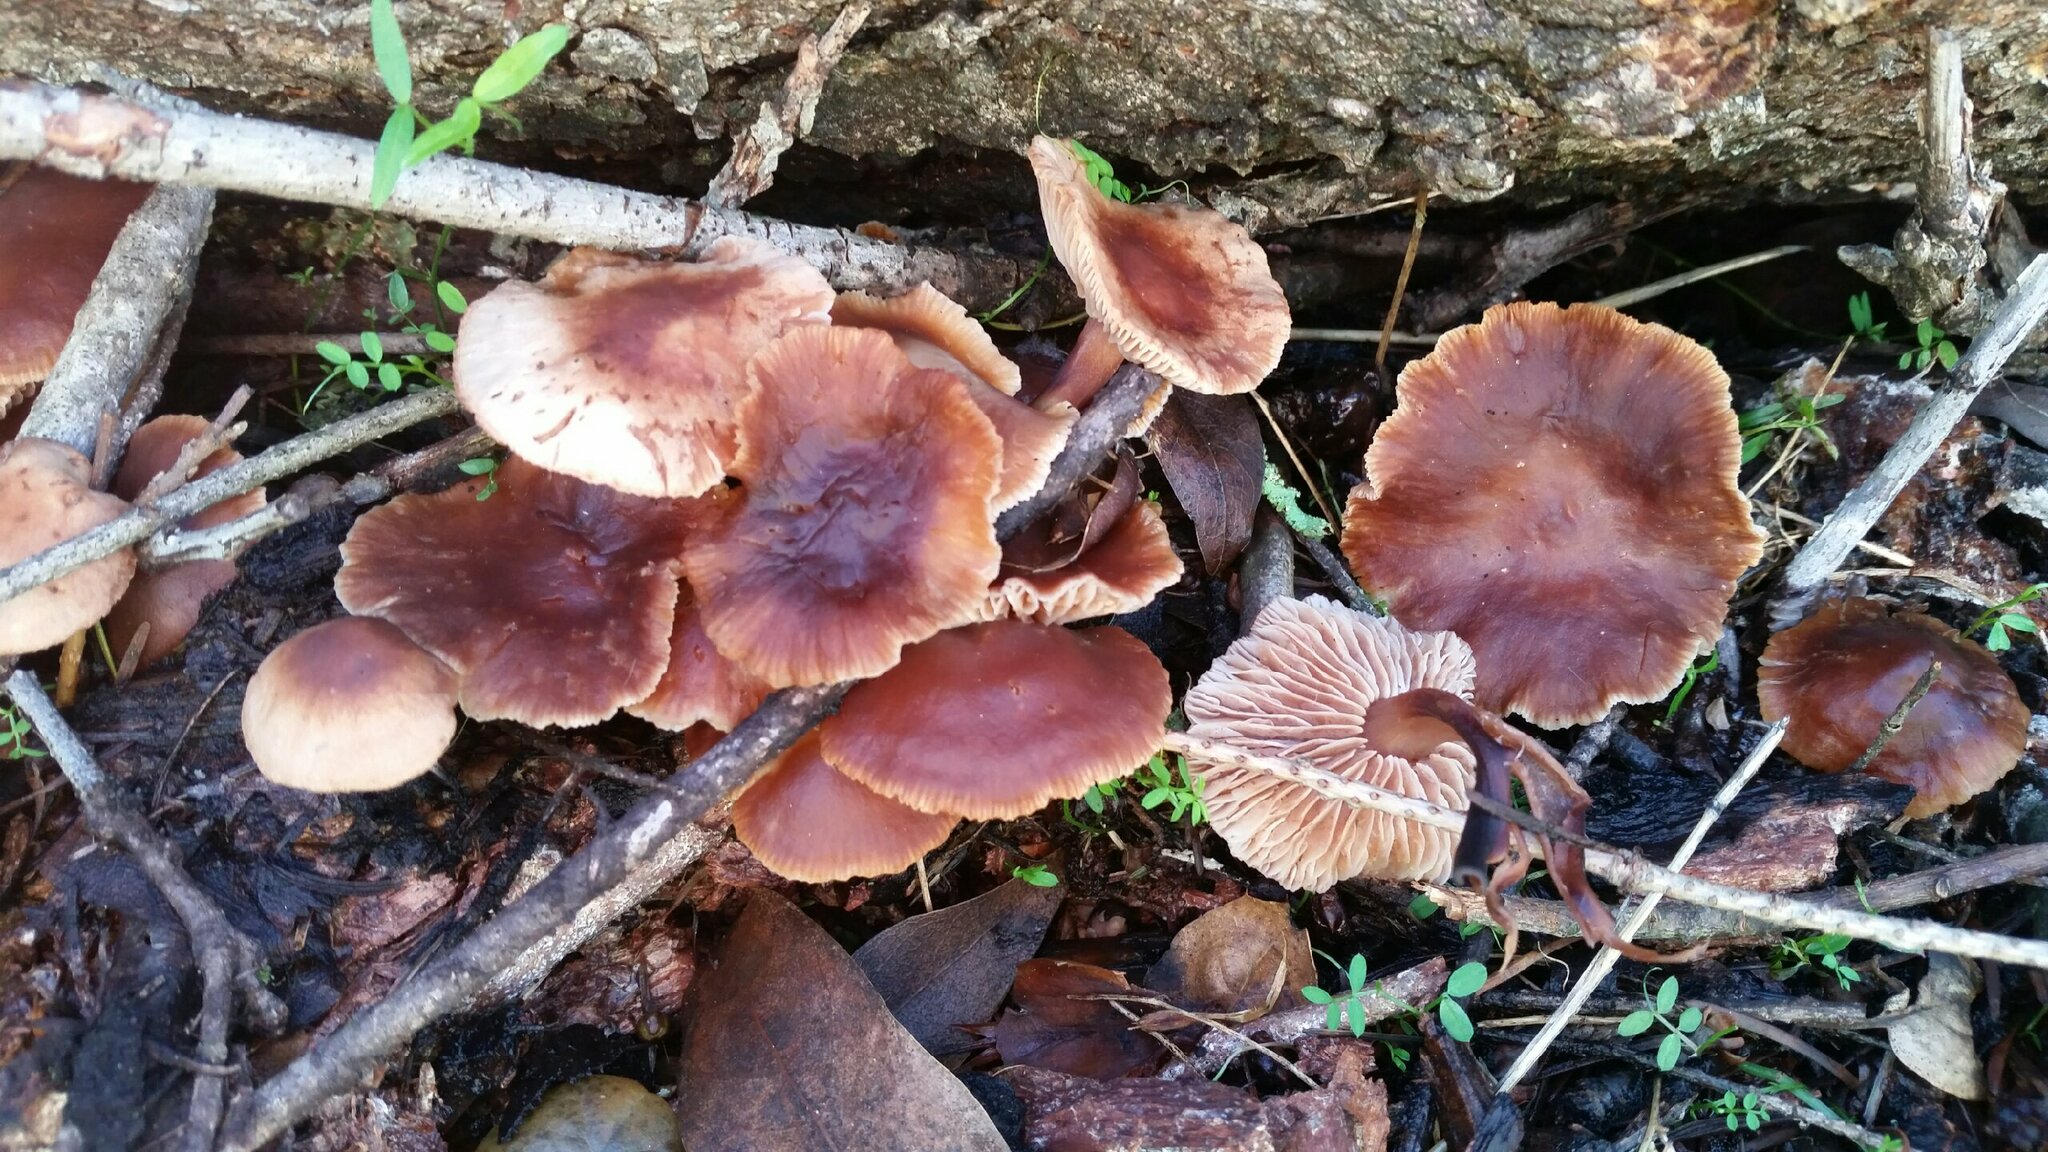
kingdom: Fungi
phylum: Basidiomycota
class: Agaricomycetes
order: Agaricales
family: Omphalotaceae
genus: Gymnopus
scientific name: Gymnopus brassicolens
